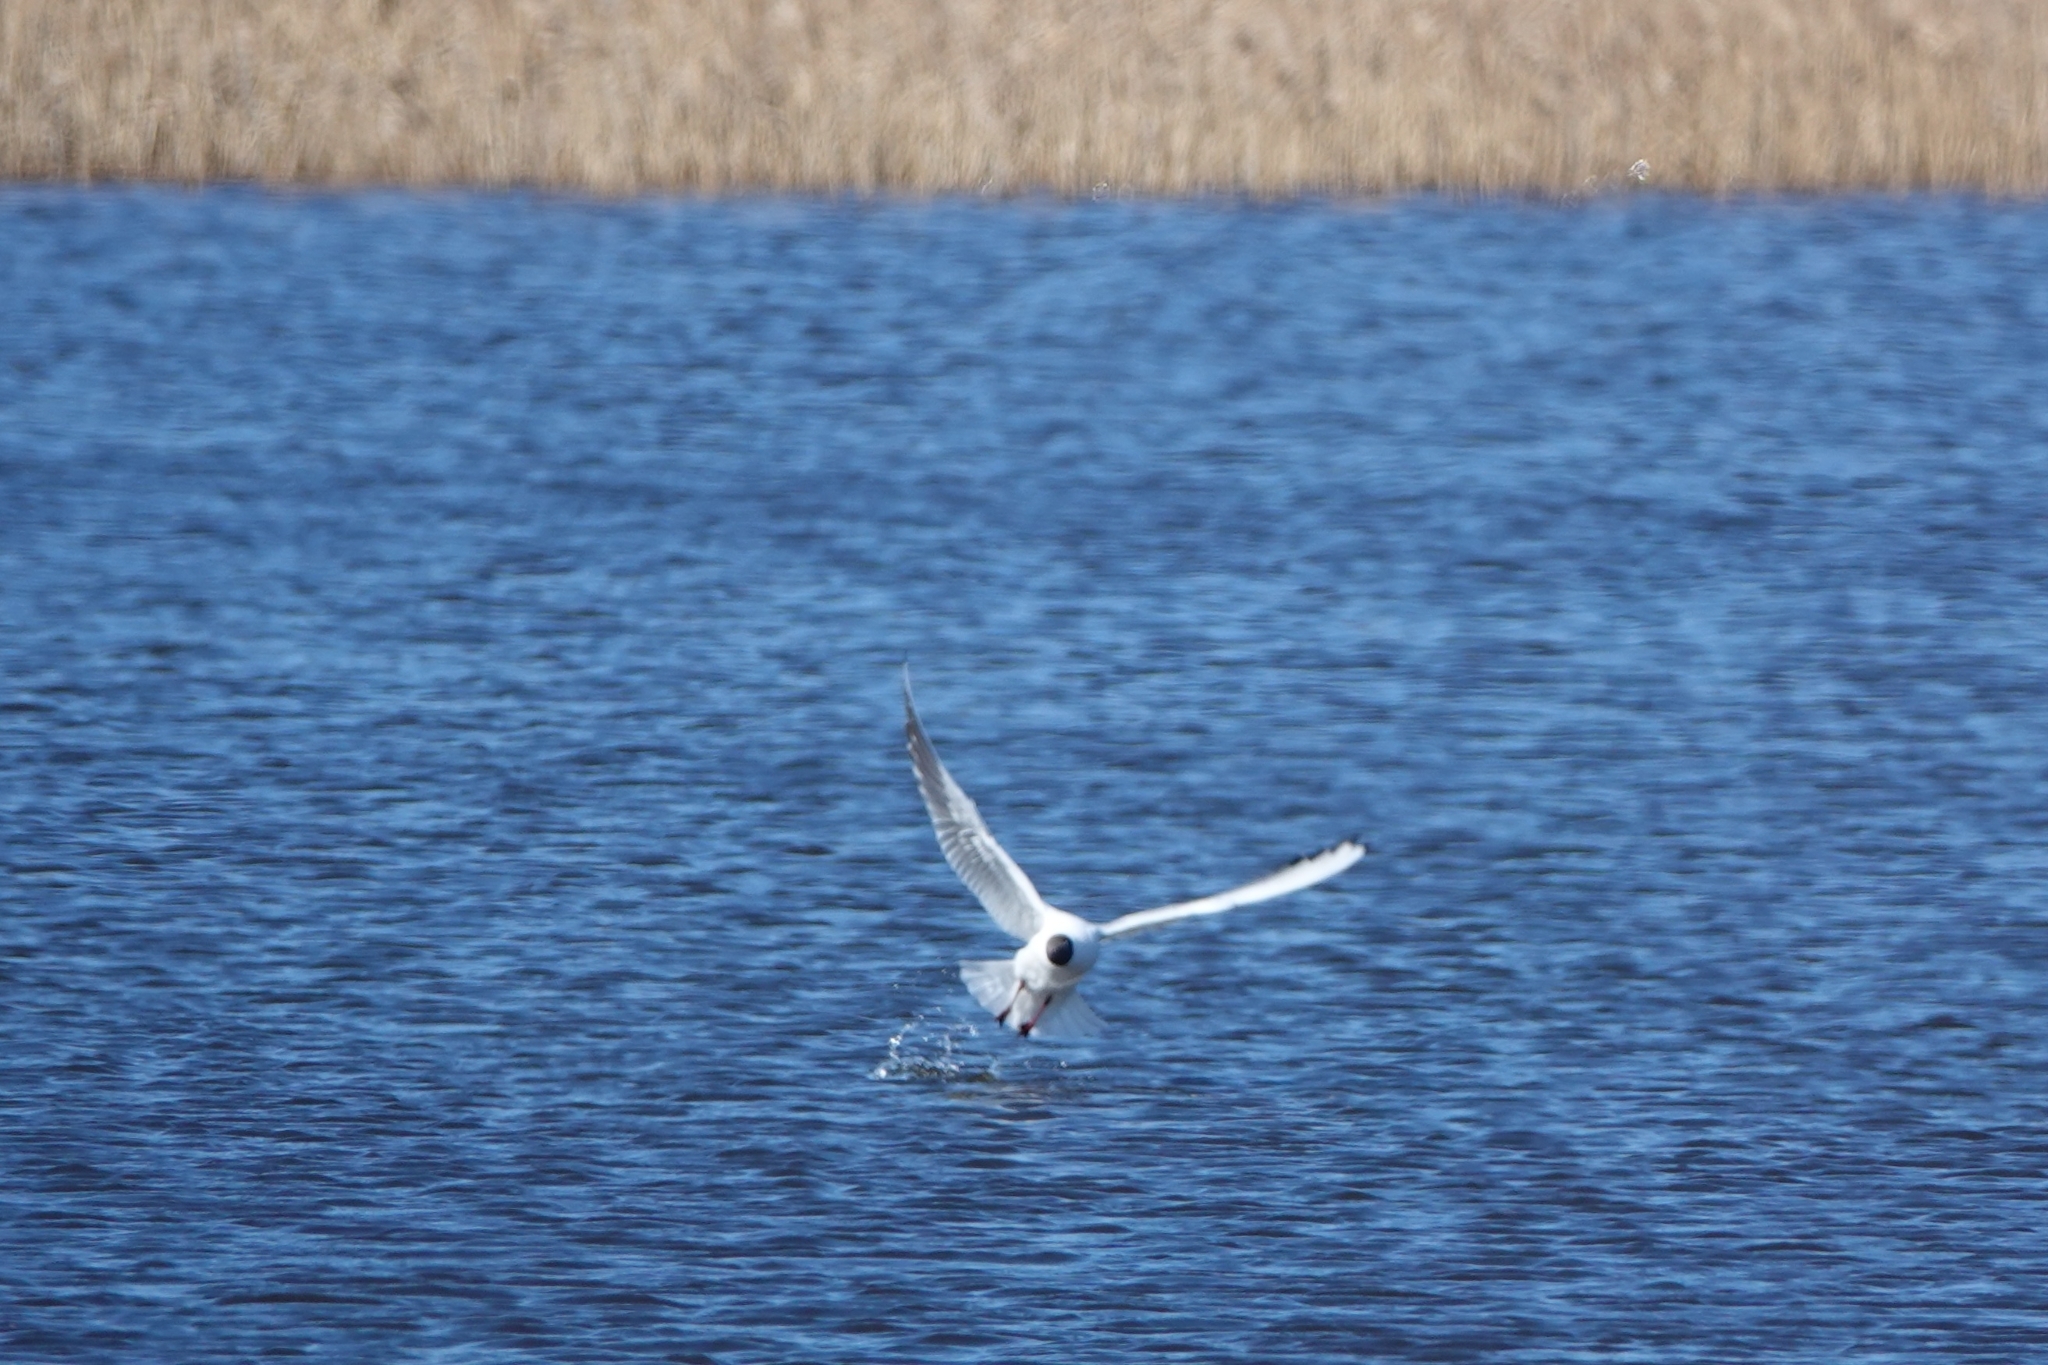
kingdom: Animalia
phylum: Chordata
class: Aves
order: Charadriiformes
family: Laridae
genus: Chroicocephalus
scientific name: Chroicocephalus ridibundus
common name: Black-headed gull
